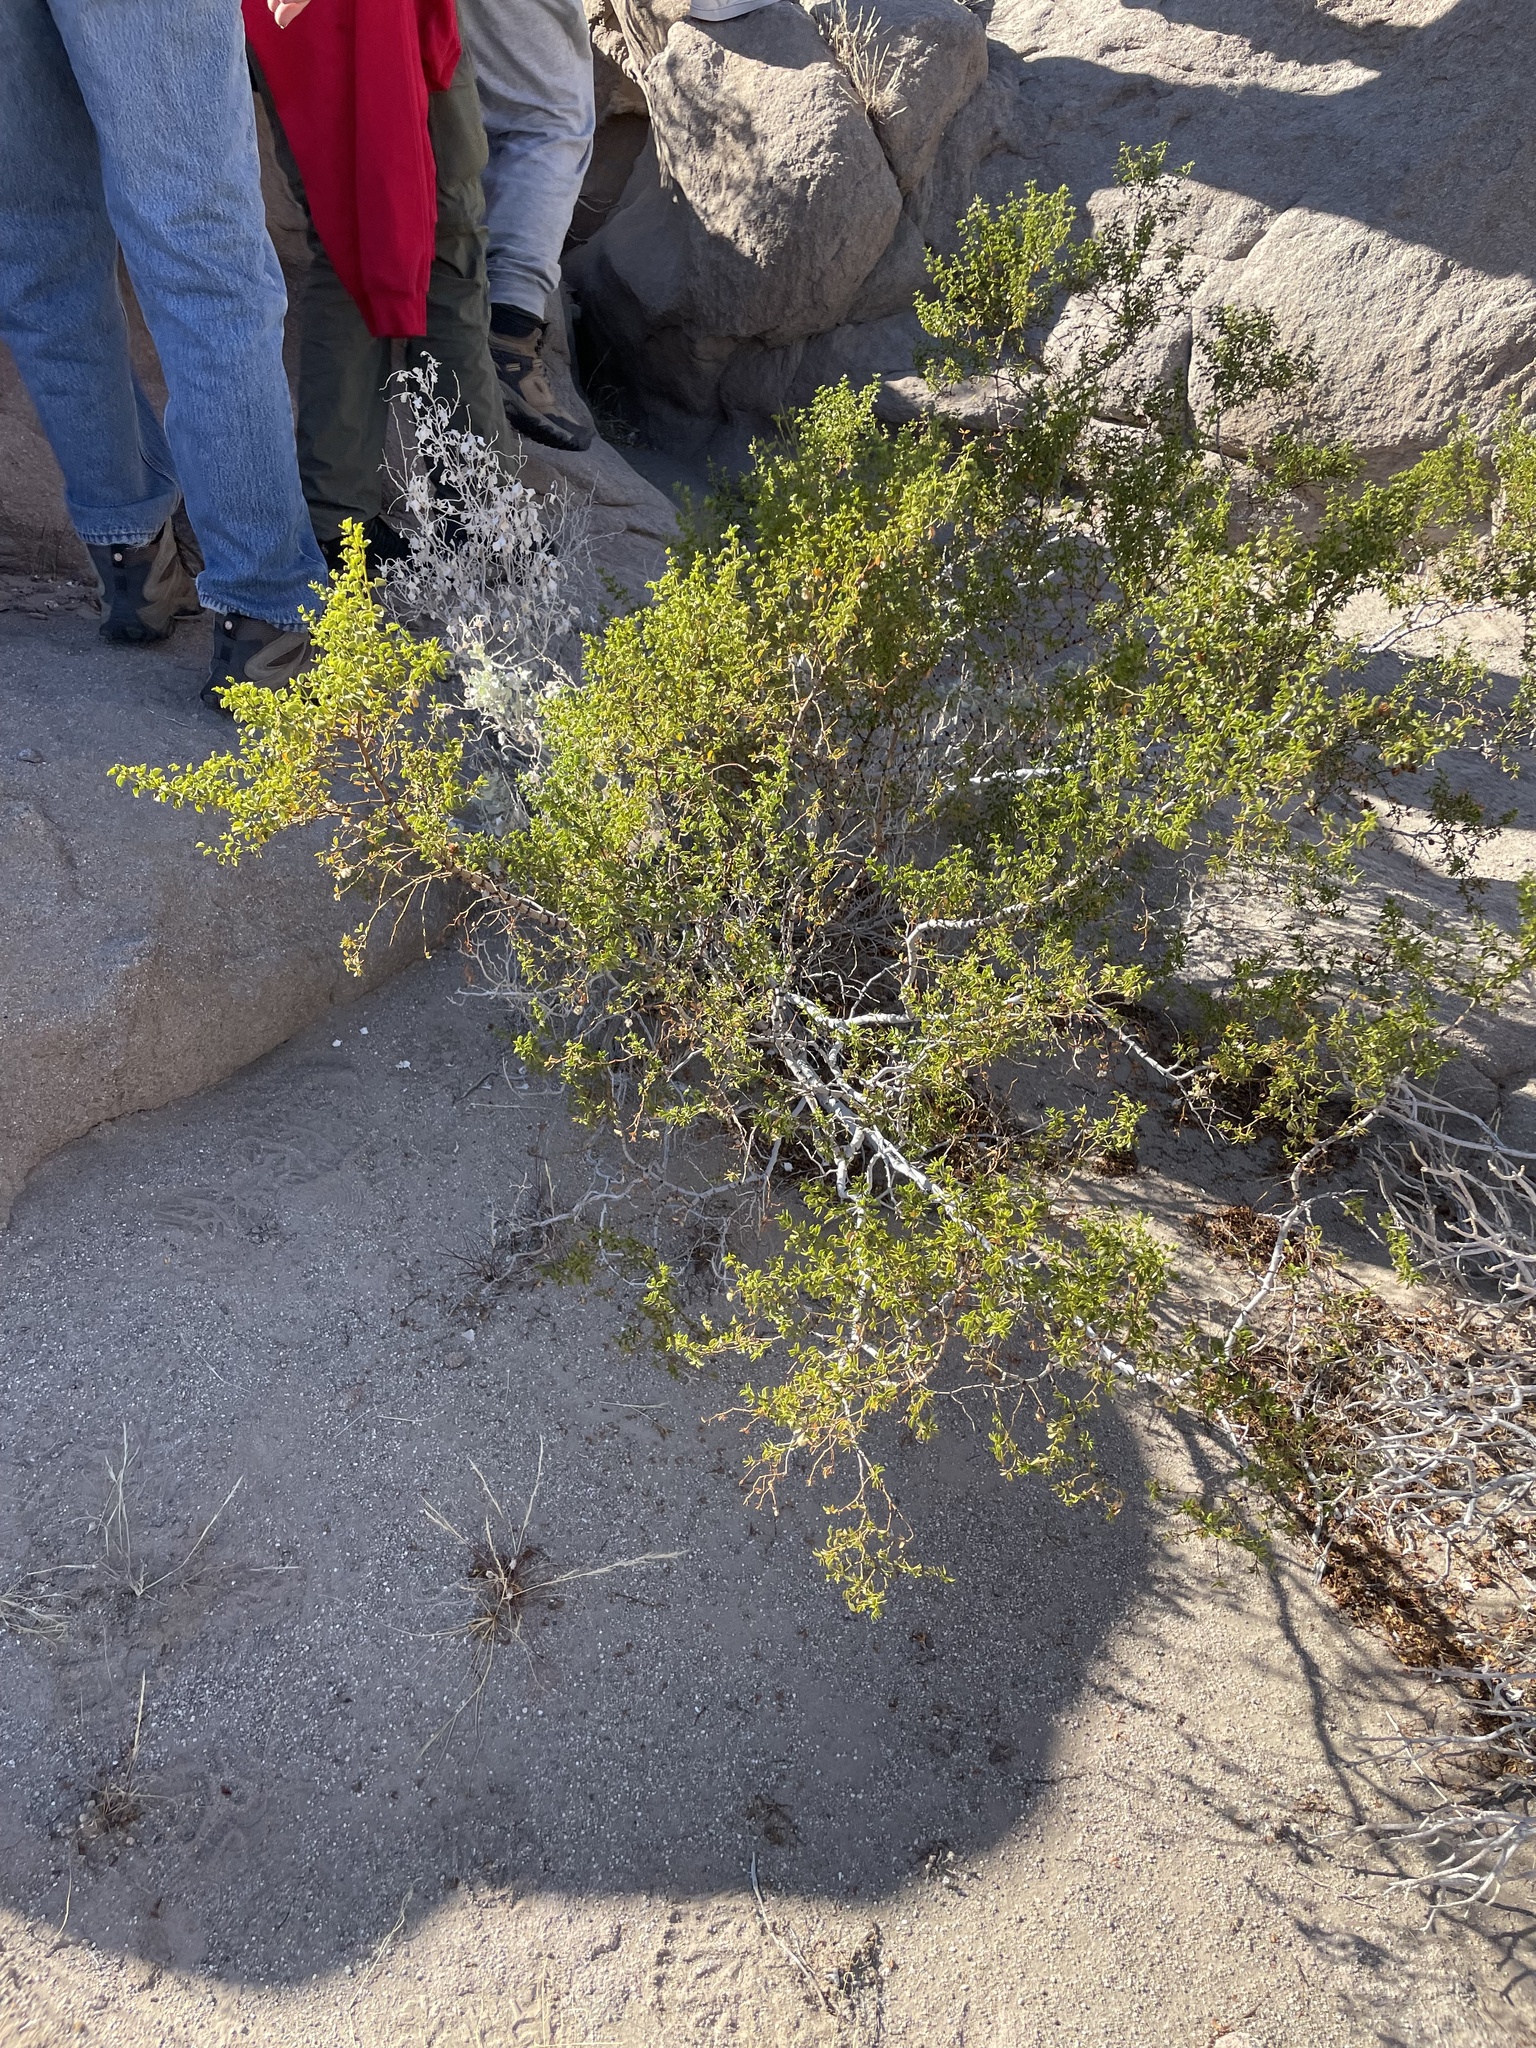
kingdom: Plantae
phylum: Tracheophyta
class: Magnoliopsida
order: Zygophyllales
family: Zygophyllaceae
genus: Larrea
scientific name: Larrea tridentata
